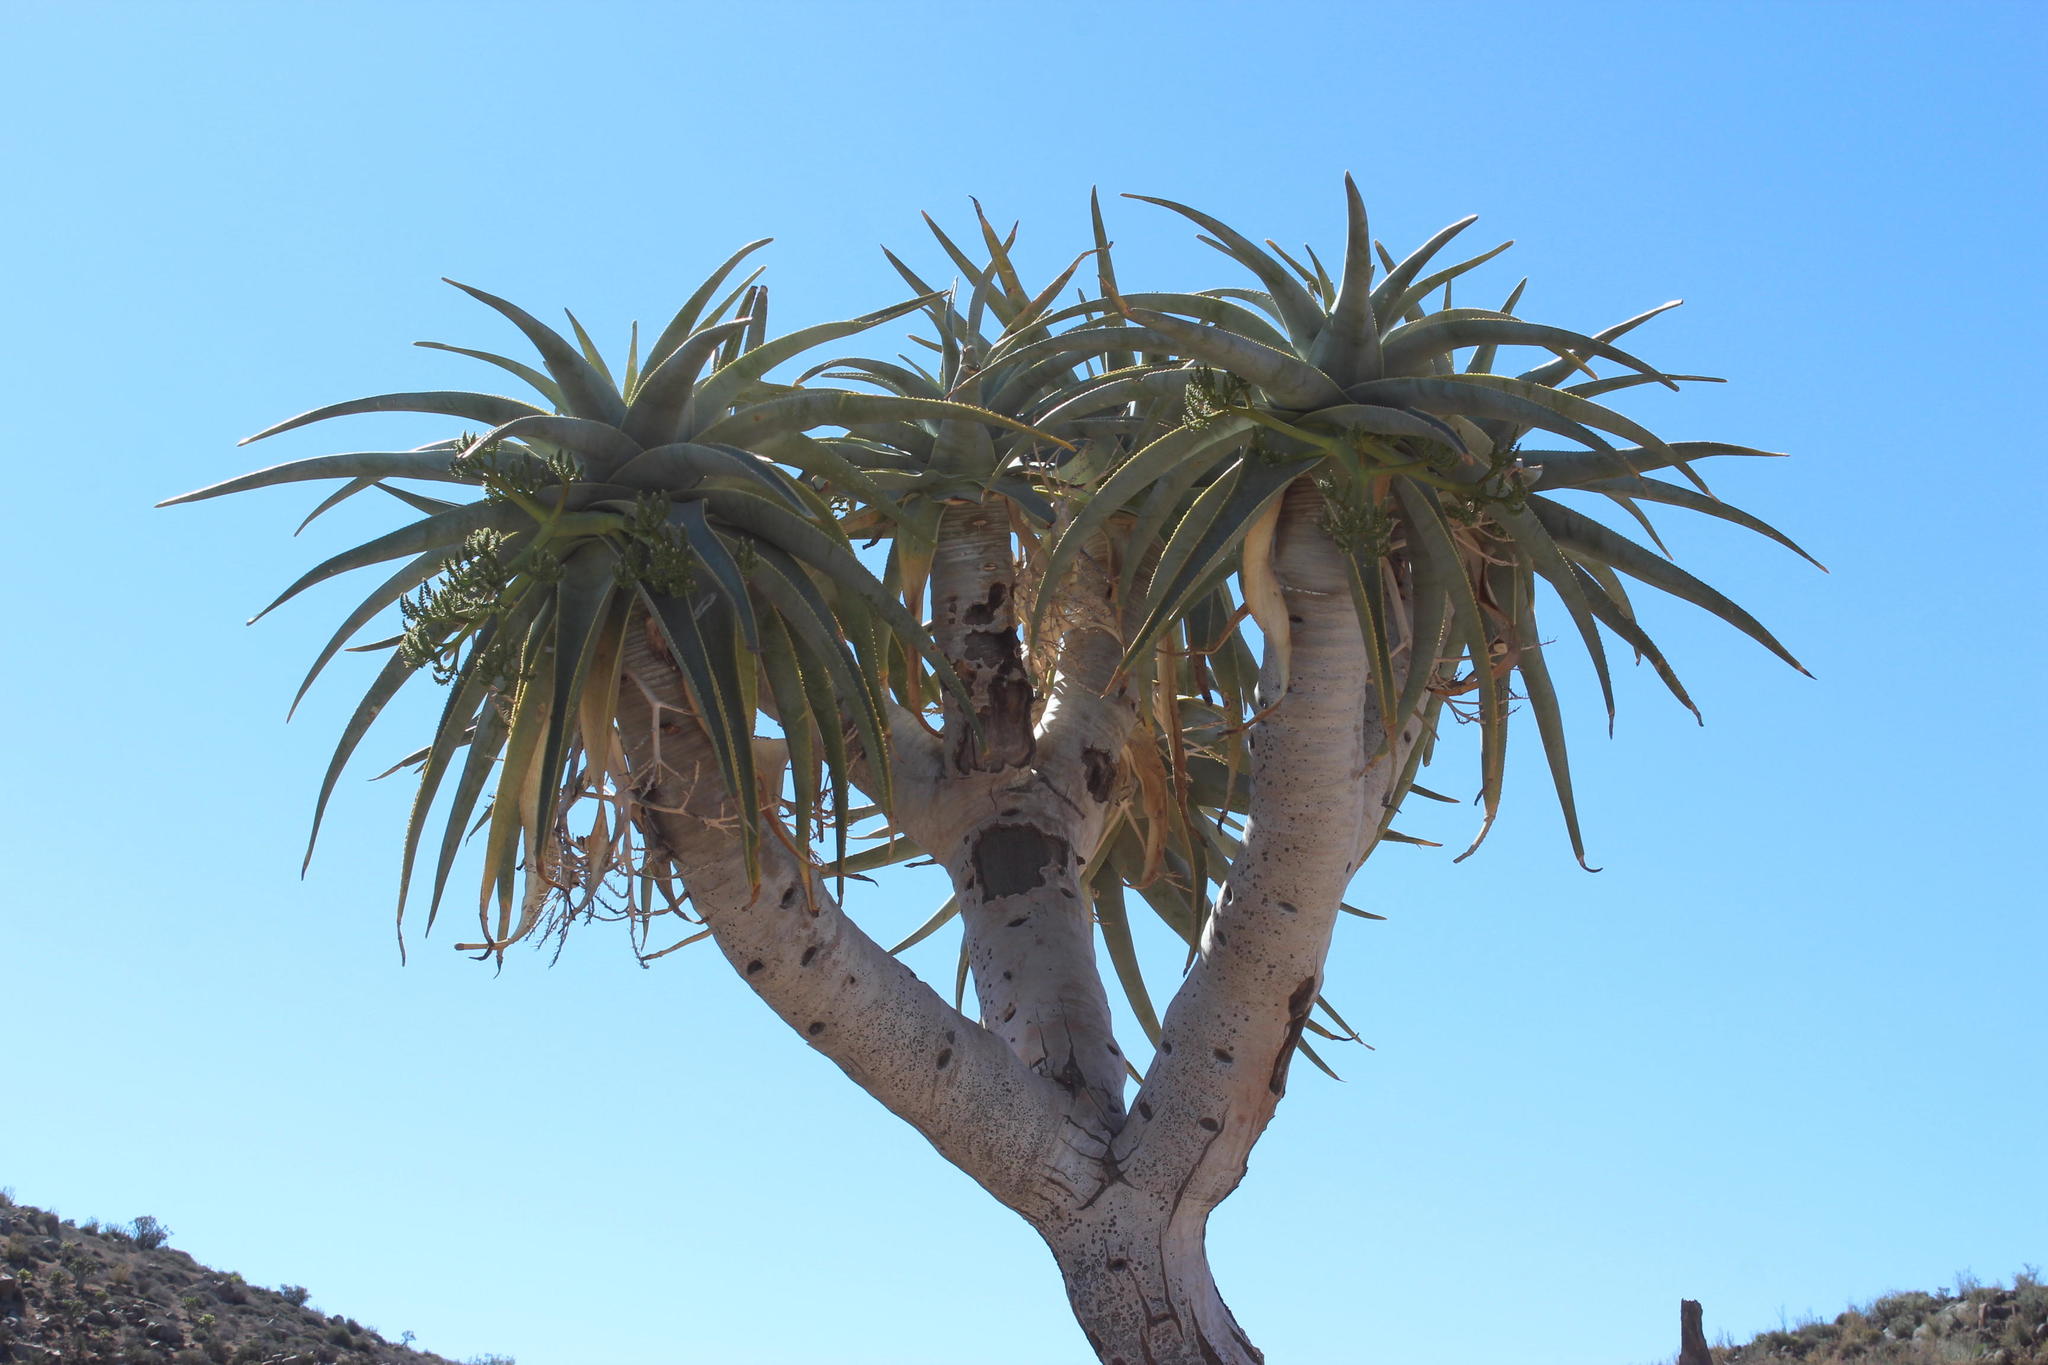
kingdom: Plantae
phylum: Tracheophyta
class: Liliopsida
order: Asparagales
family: Asphodelaceae
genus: Aloidendron
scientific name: Aloidendron pillansii
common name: Bastard quiver tree
